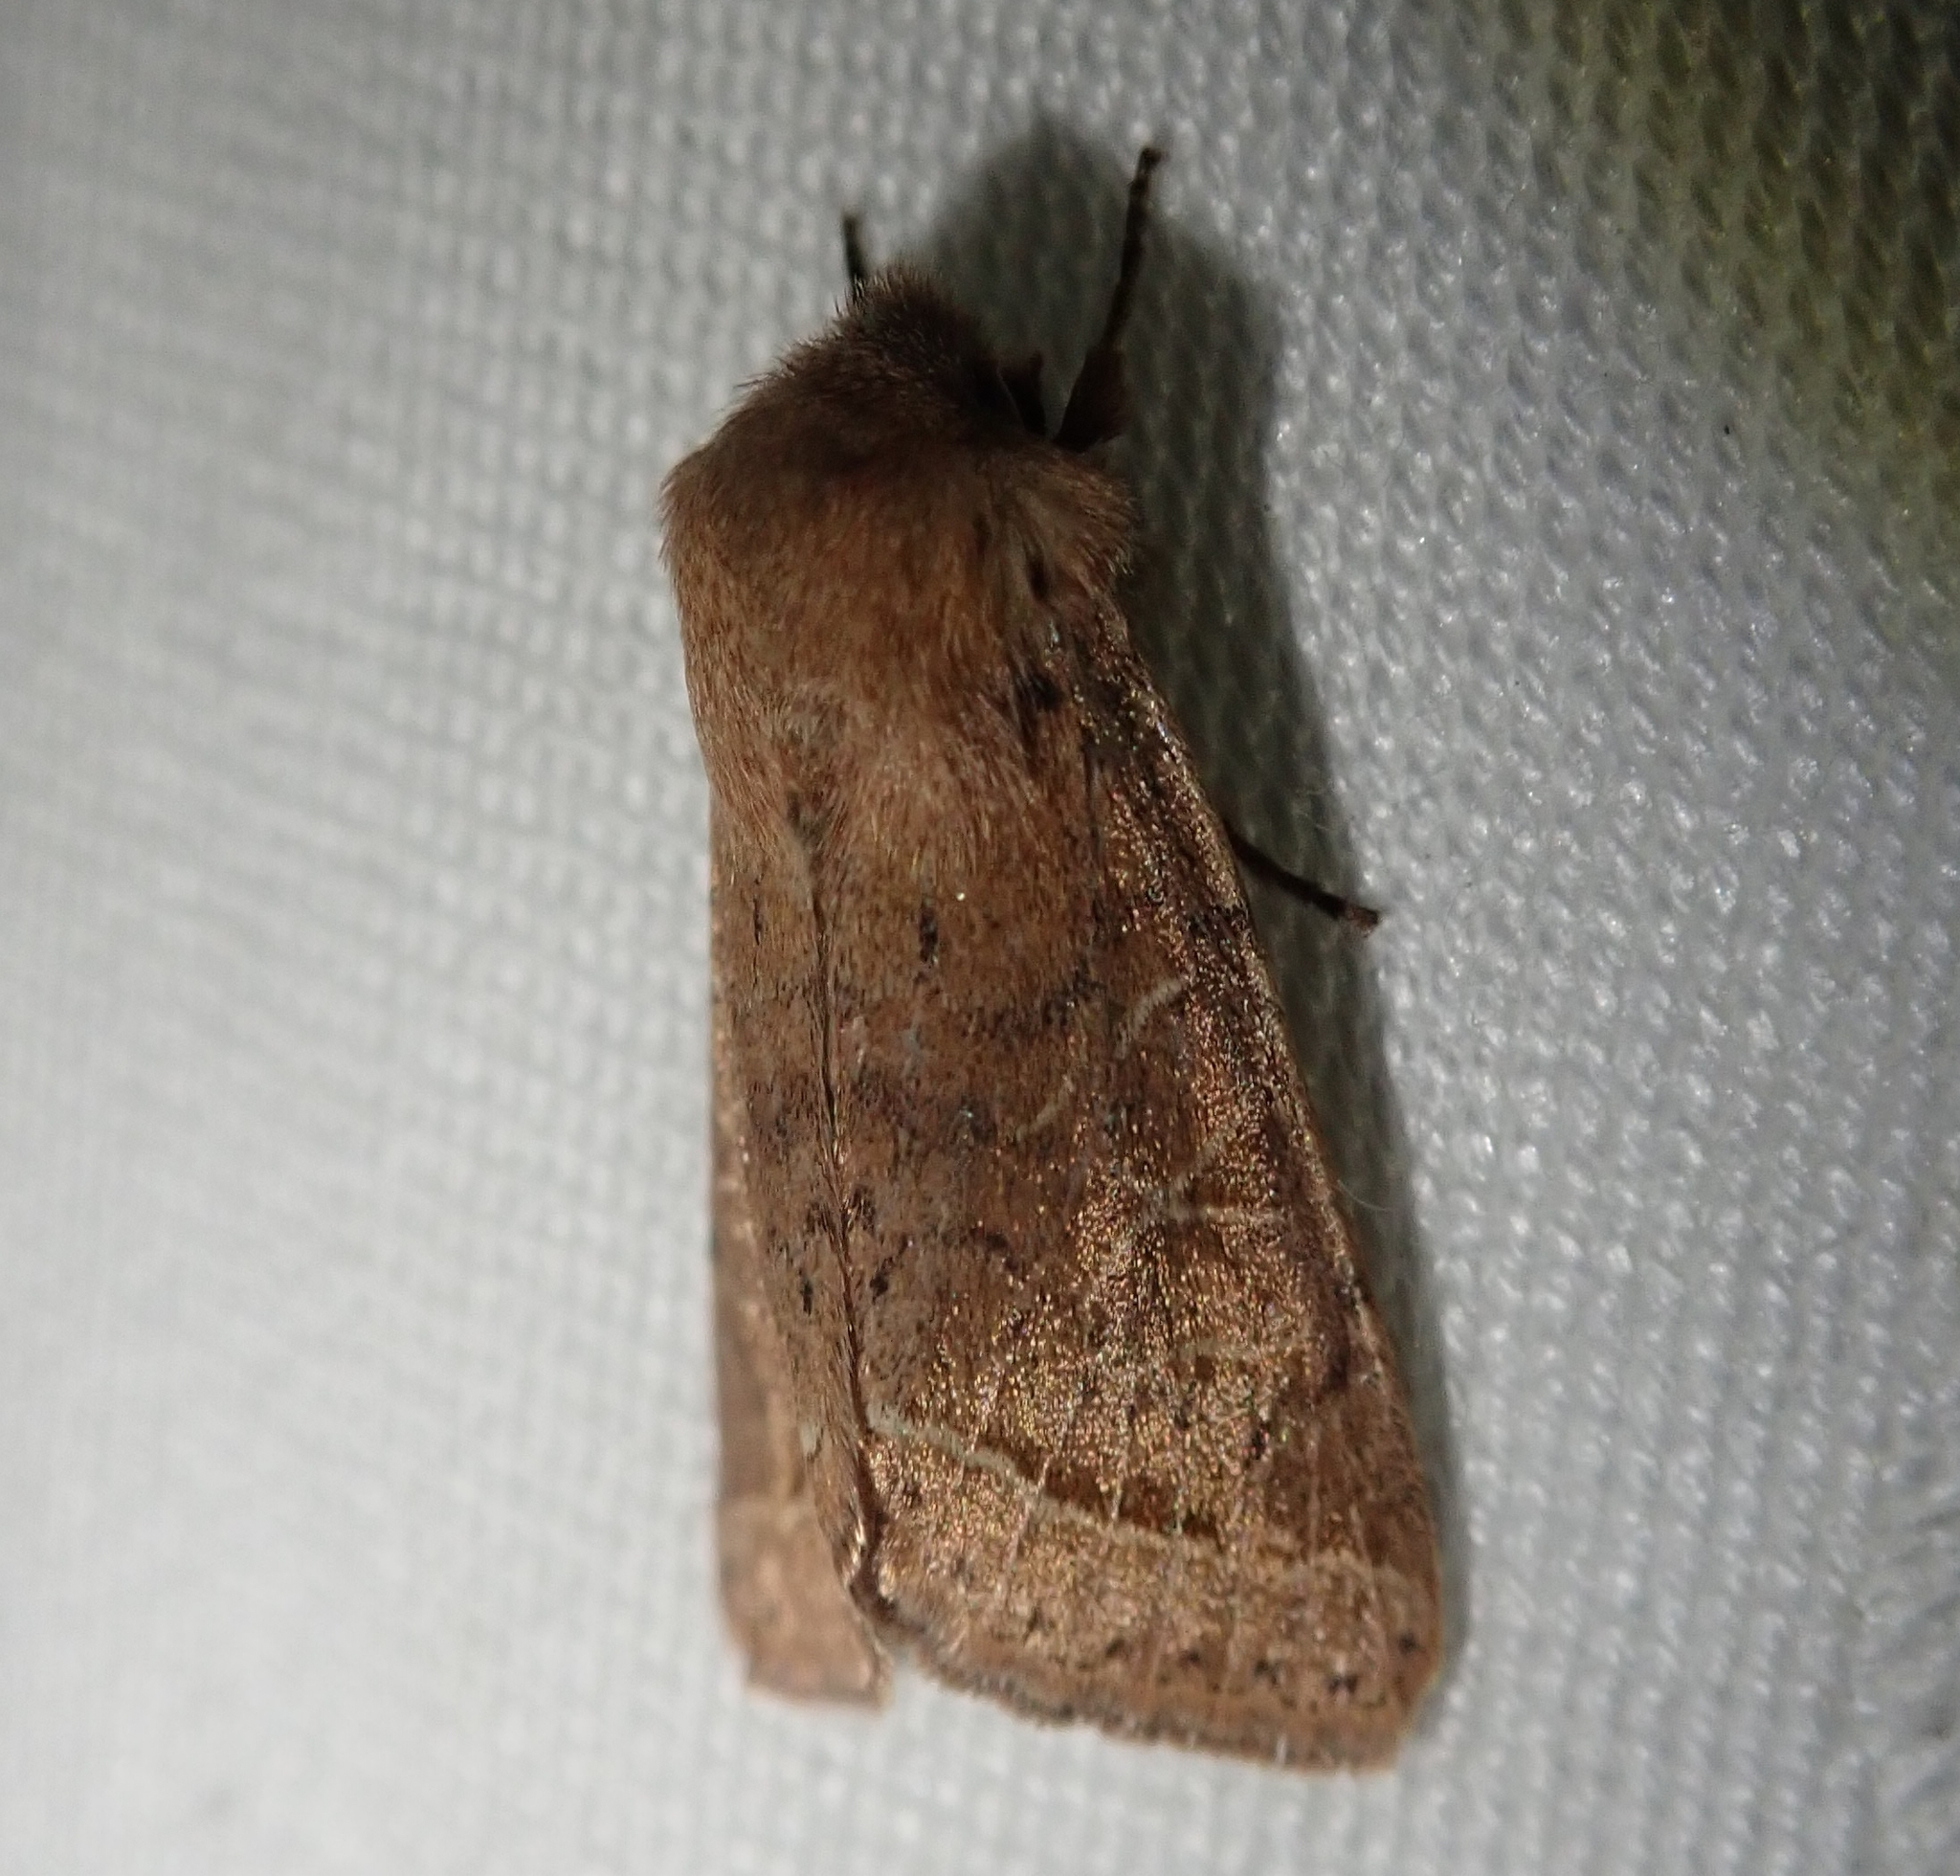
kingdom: Animalia
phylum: Arthropoda
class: Insecta
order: Lepidoptera
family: Noctuidae
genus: Orthosia
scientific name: Orthosia cerasi
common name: Common quaker
